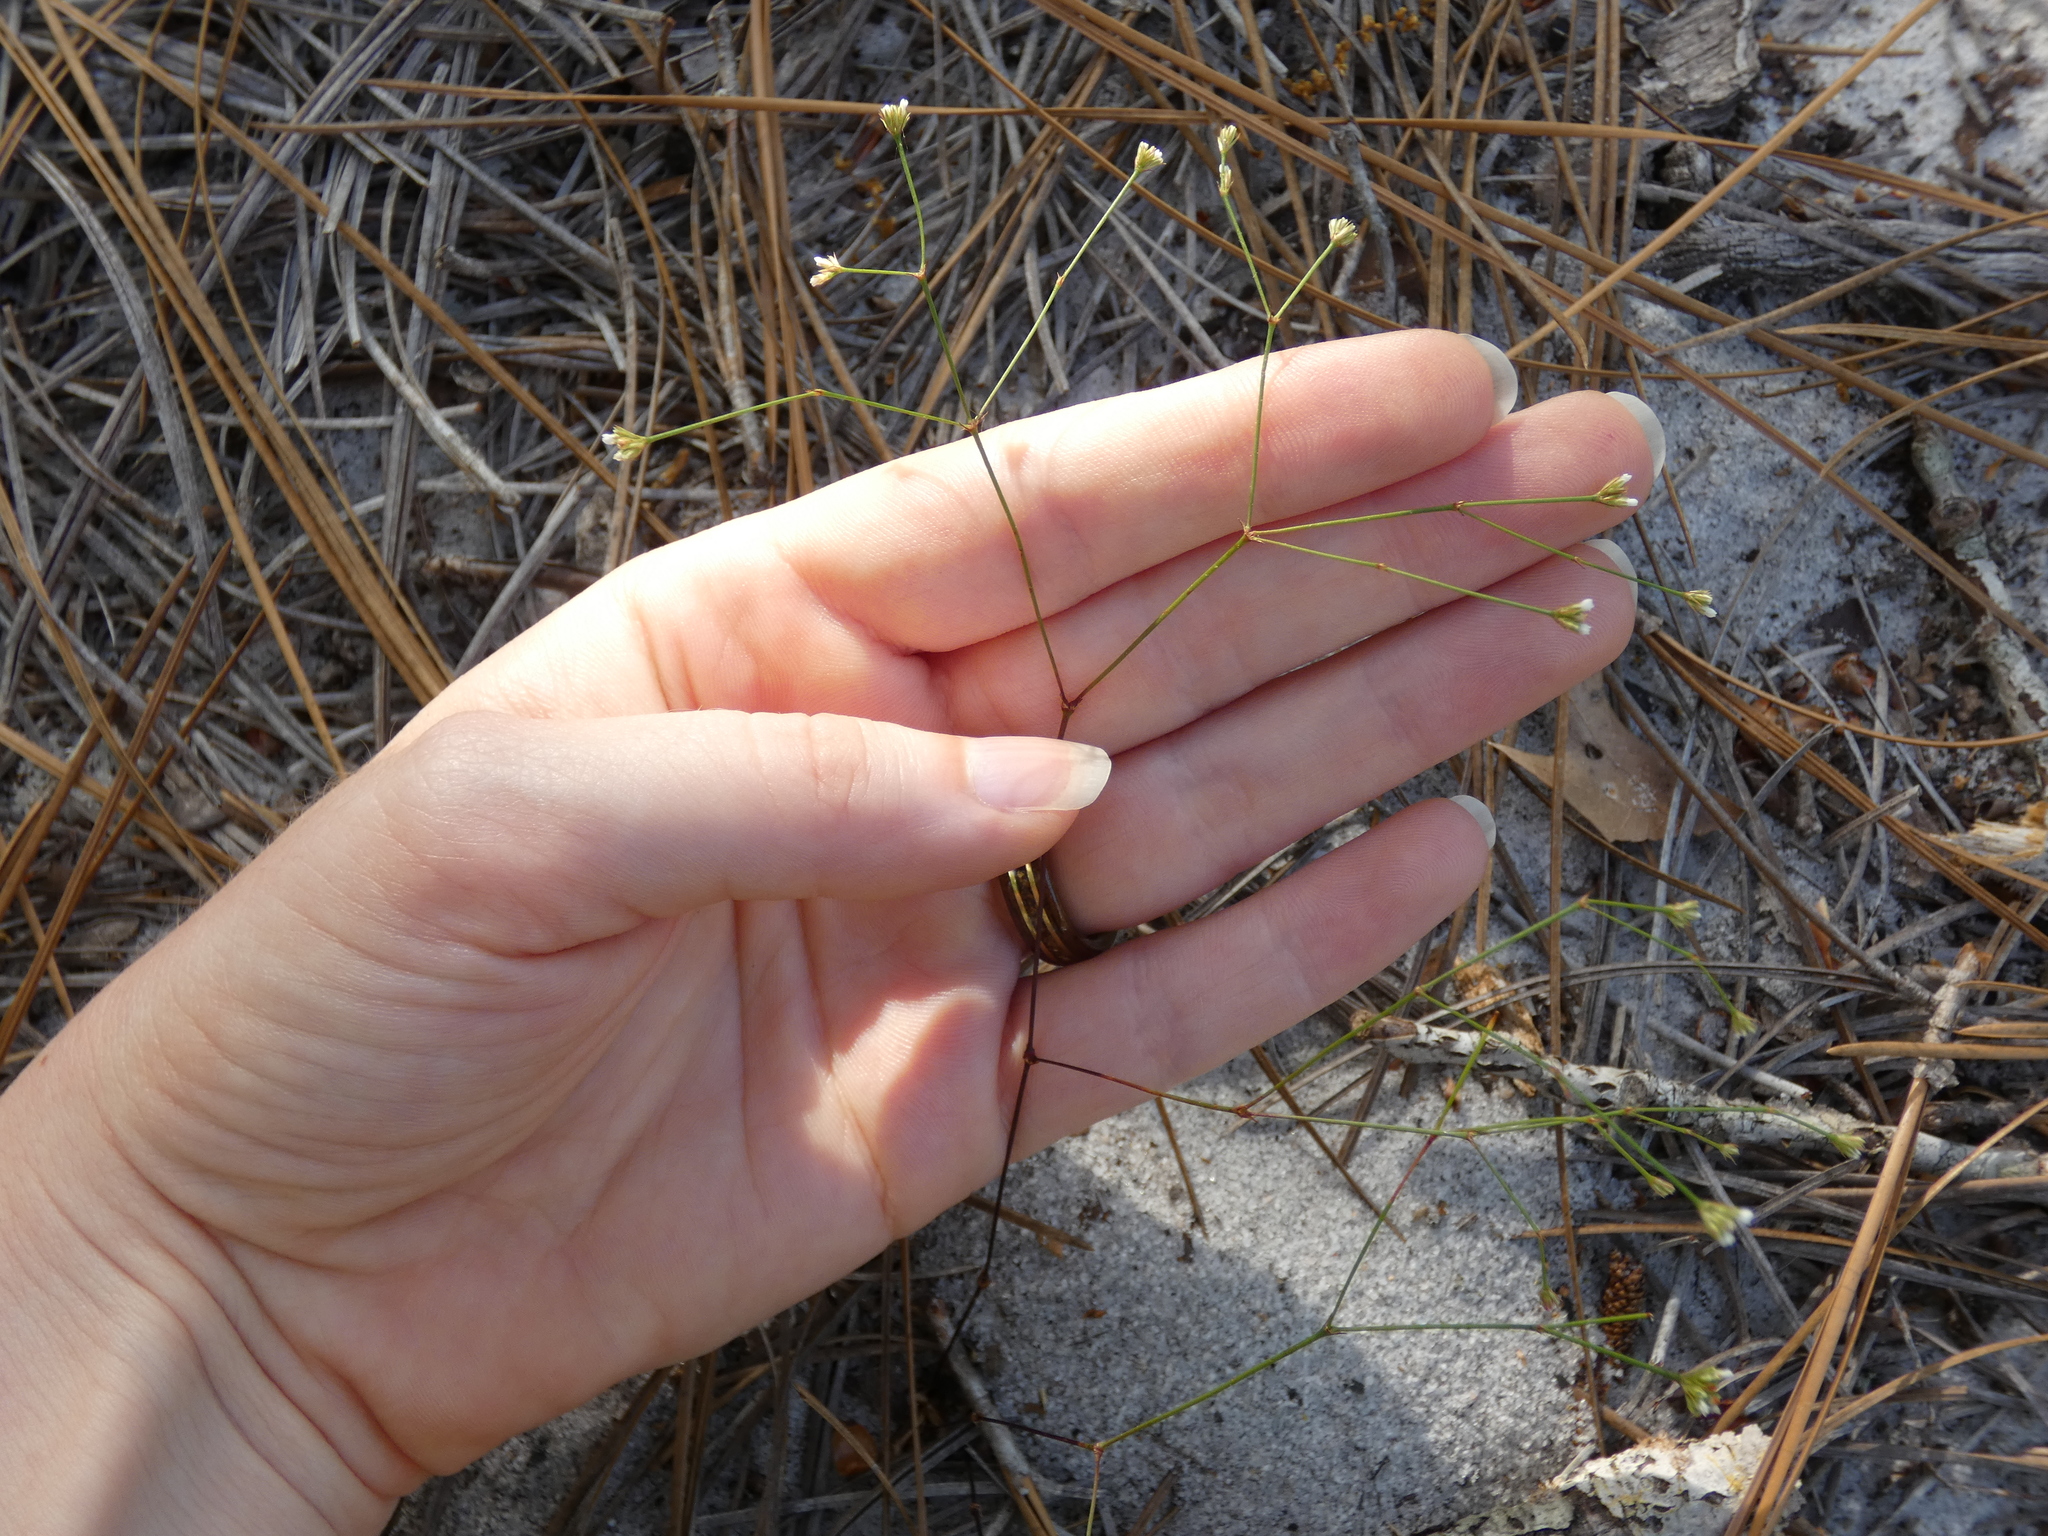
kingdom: Plantae
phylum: Tracheophyta
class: Magnoliopsida
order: Caryophyllales
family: Caryophyllaceae
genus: Stipulicida
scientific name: Stipulicida setacea
